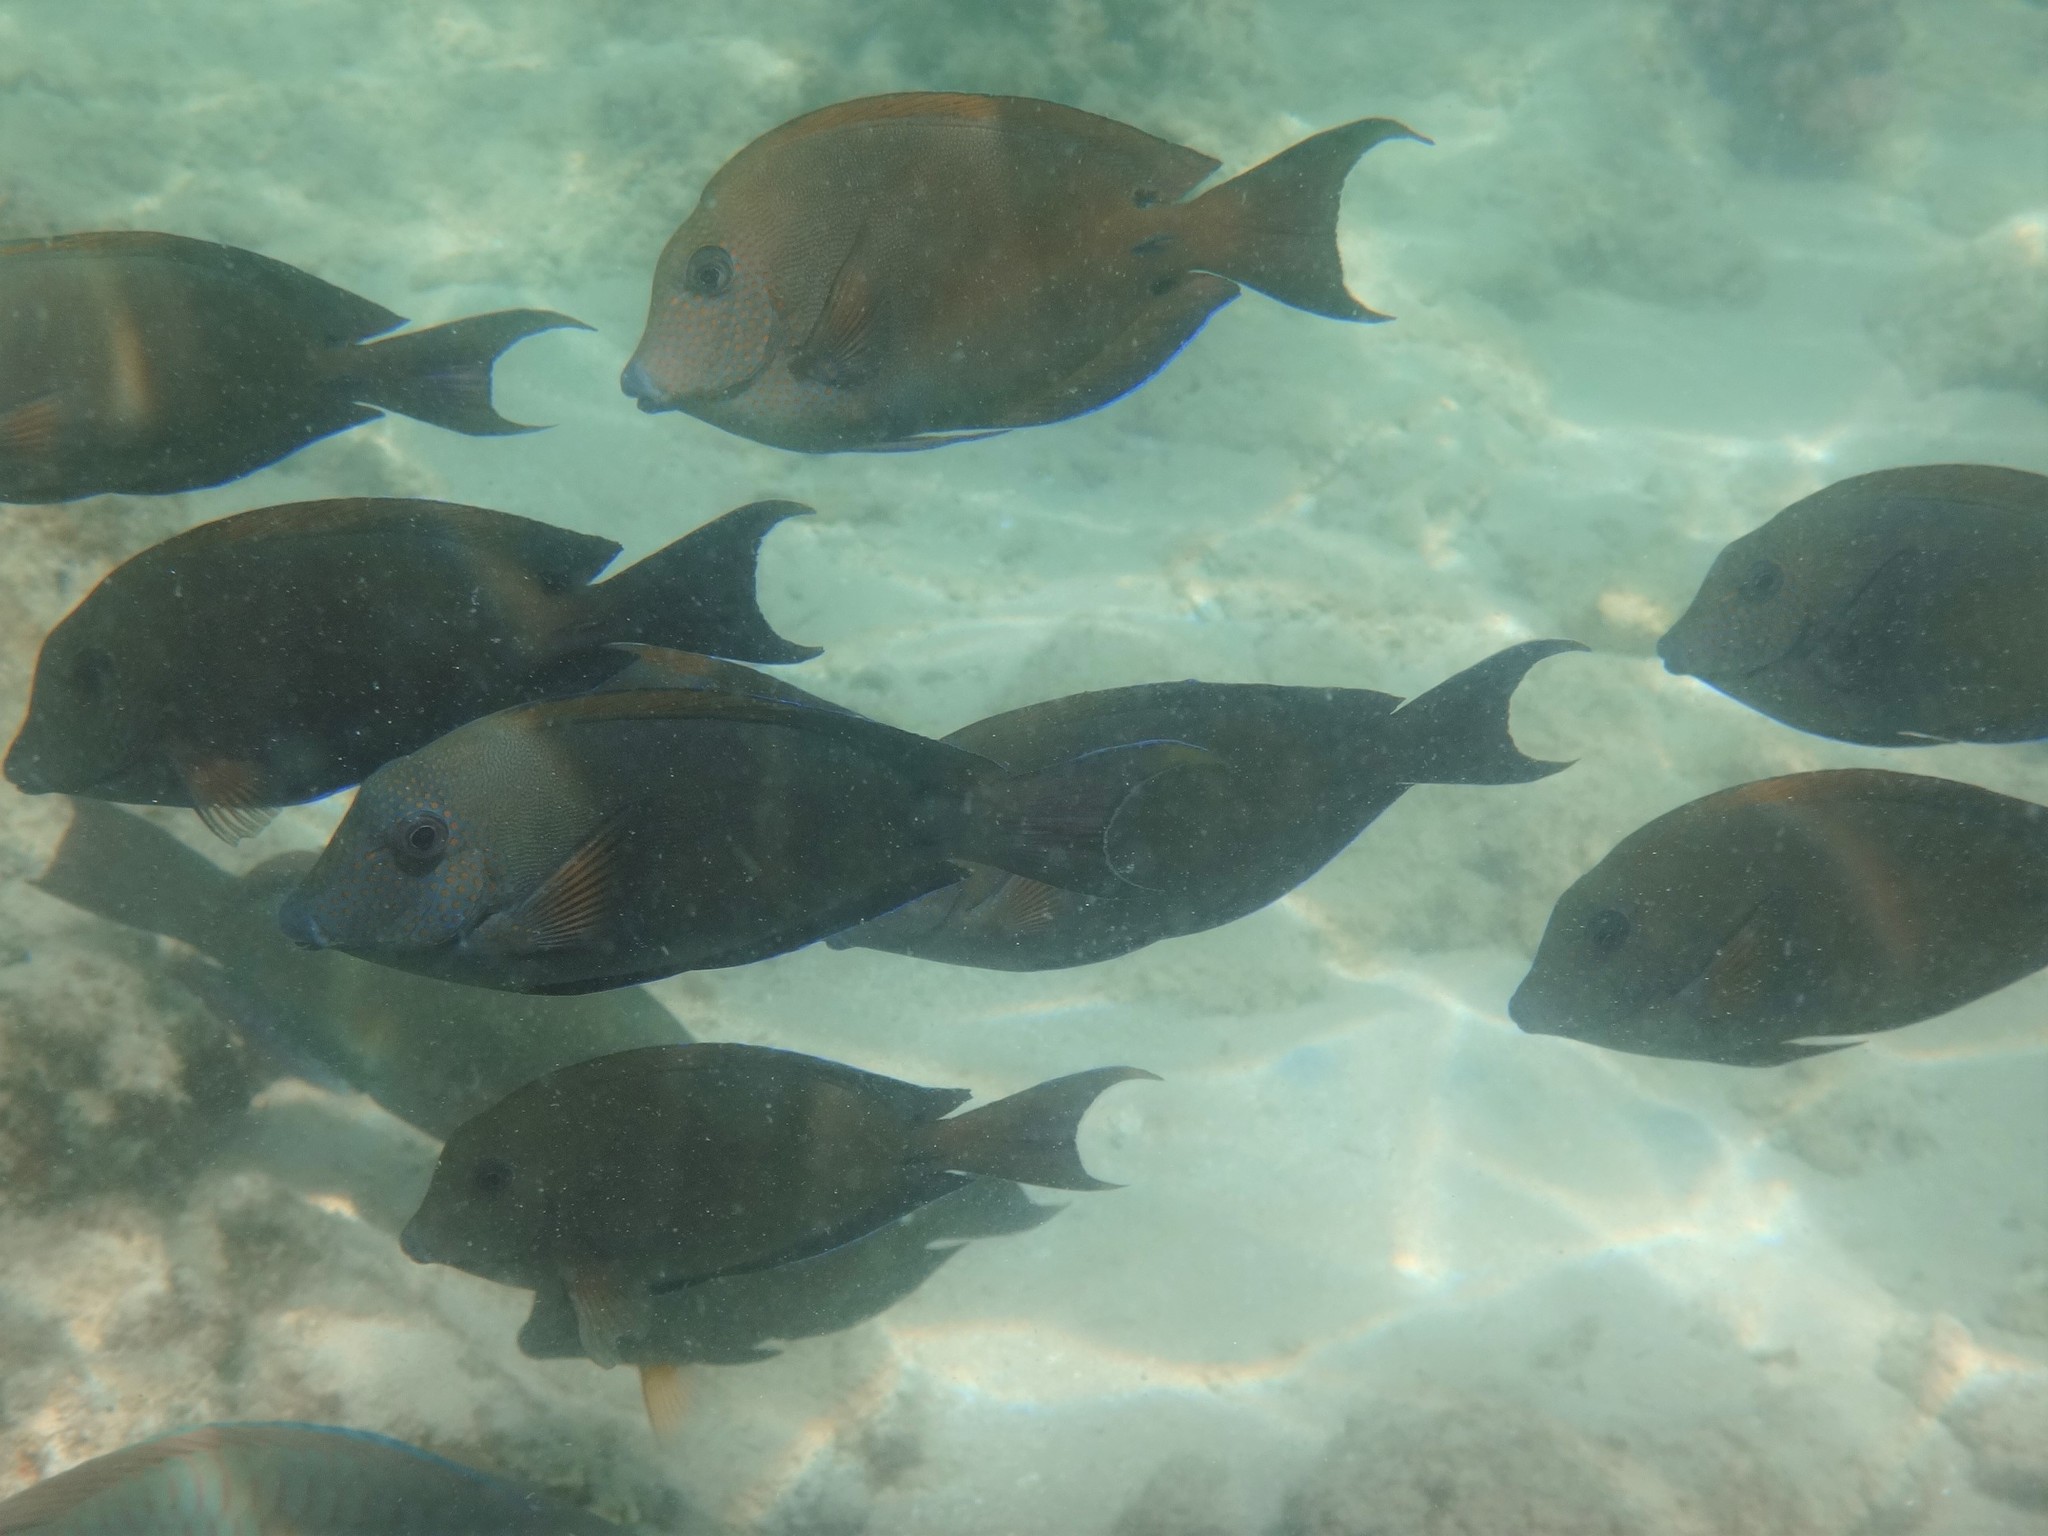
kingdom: Animalia
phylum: Chordata
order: Perciformes
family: Acanthuridae
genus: Acanthurus
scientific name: Acanthurus nigrofuscus
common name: Blackspot surgeonfish
